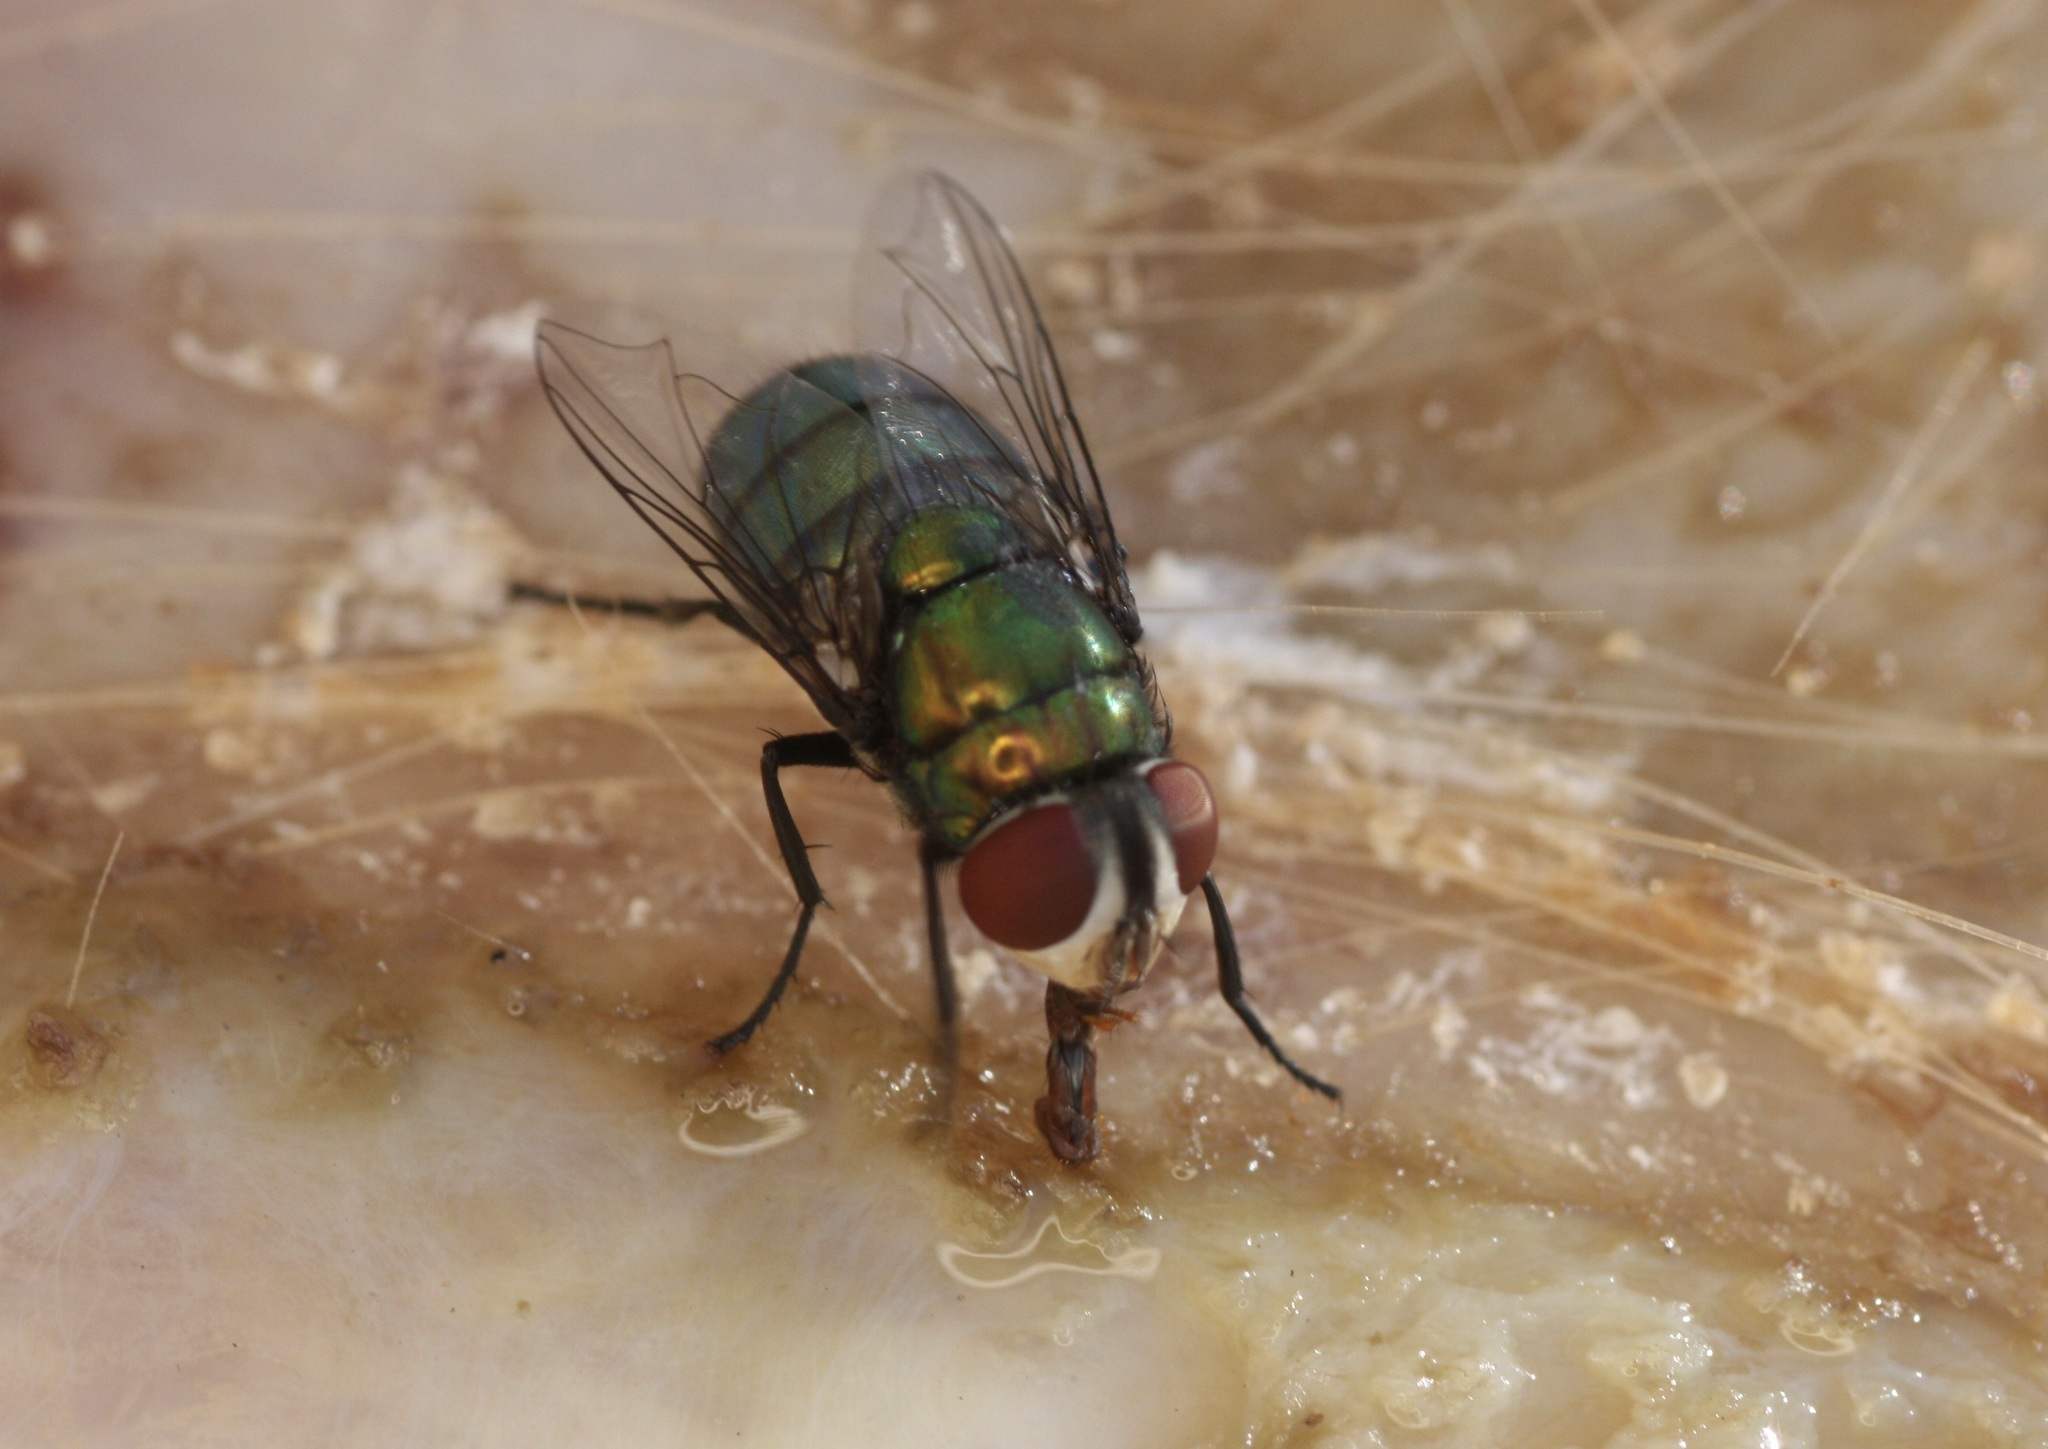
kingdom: Animalia
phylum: Arthropoda
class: Insecta
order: Diptera
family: Calliphoridae
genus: Chrysomya
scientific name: Chrysomya rufifacies
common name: Blow fly
